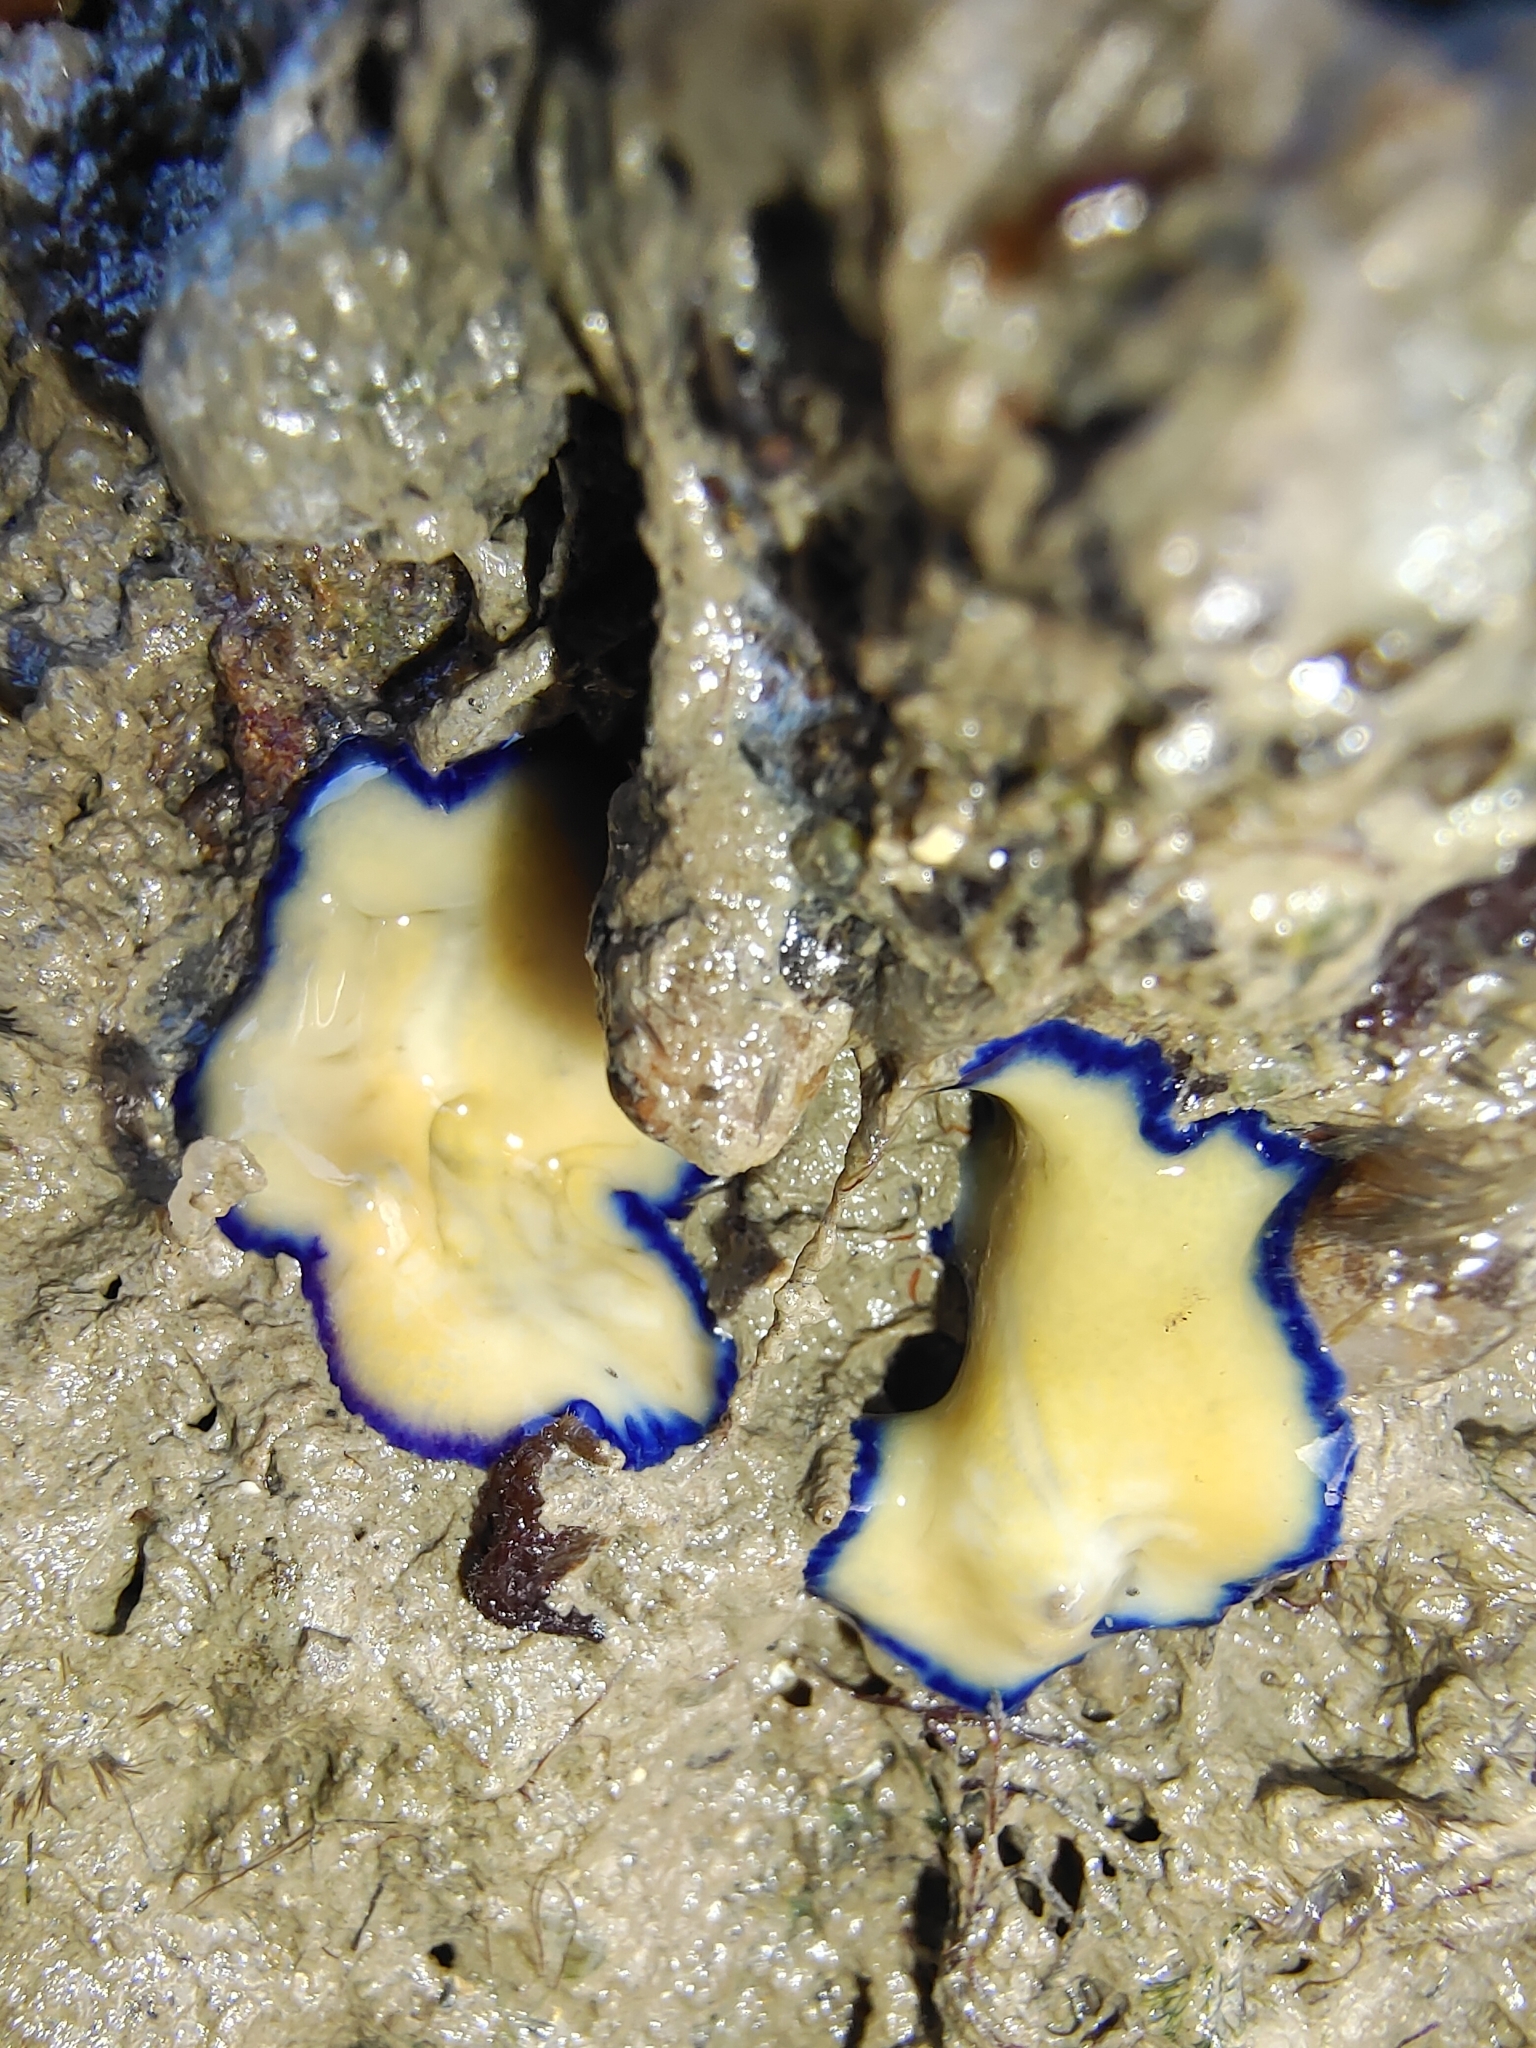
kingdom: Animalia
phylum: Platyhelminthes
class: Turbellaria
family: Pseudocerotidae
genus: Pseudoceros
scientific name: Pseudoceros indicus
